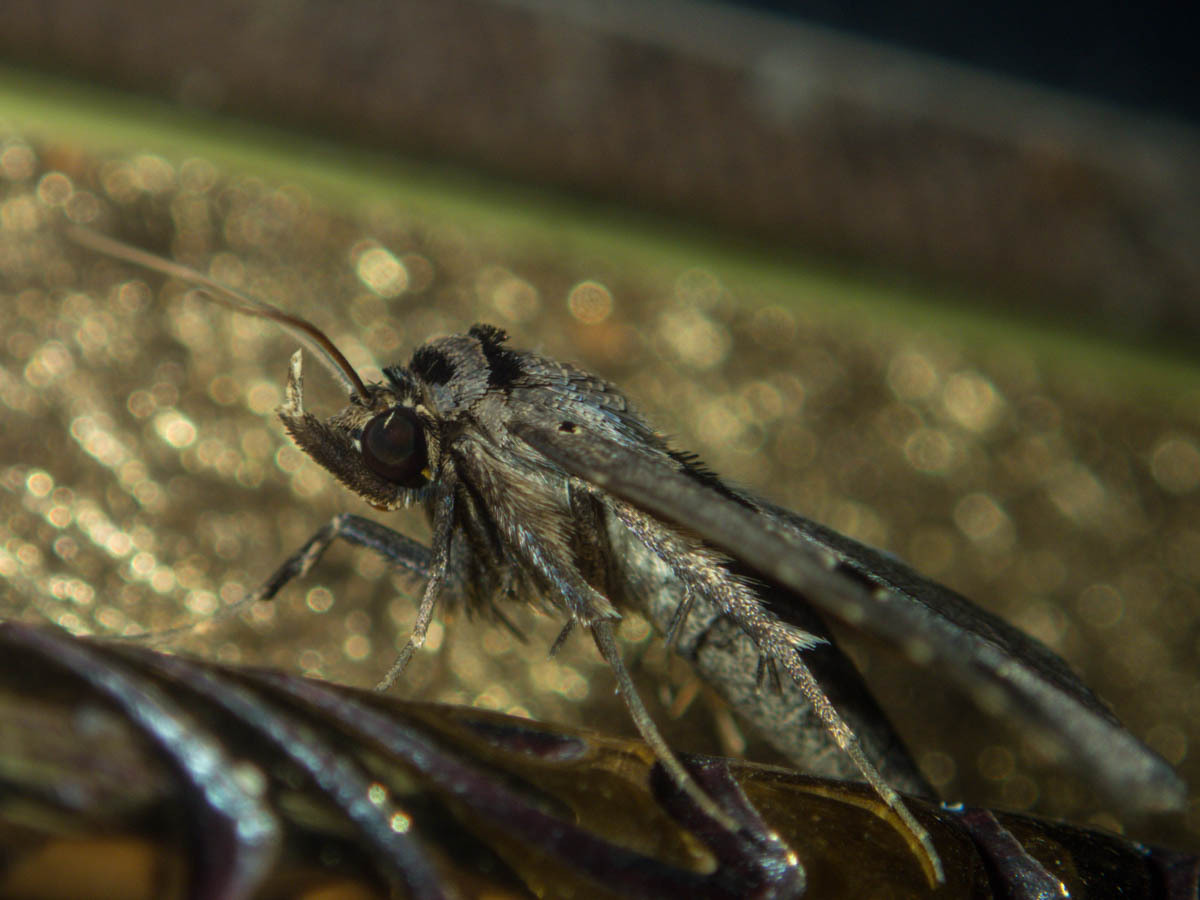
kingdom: Animalia
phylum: Arthropoda
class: Insecta
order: Lepidoptera
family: Erebidae
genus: Tephriopis
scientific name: Tephriopis divulsa
